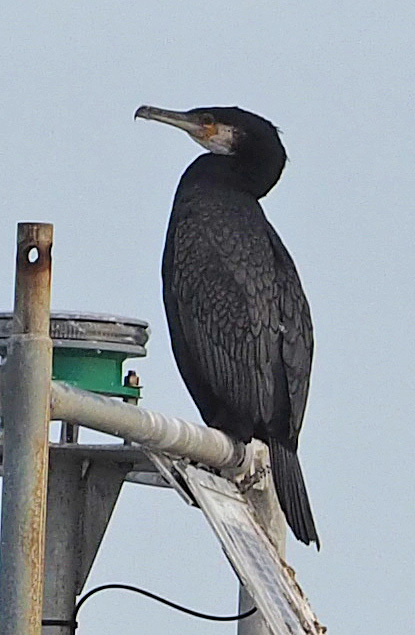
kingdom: Animalia
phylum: Chordata
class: Aves
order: Suliformes
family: Phalacrocoracidae
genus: Phalacrocorax
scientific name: Phalacrocorax carbo
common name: Great cormorant
